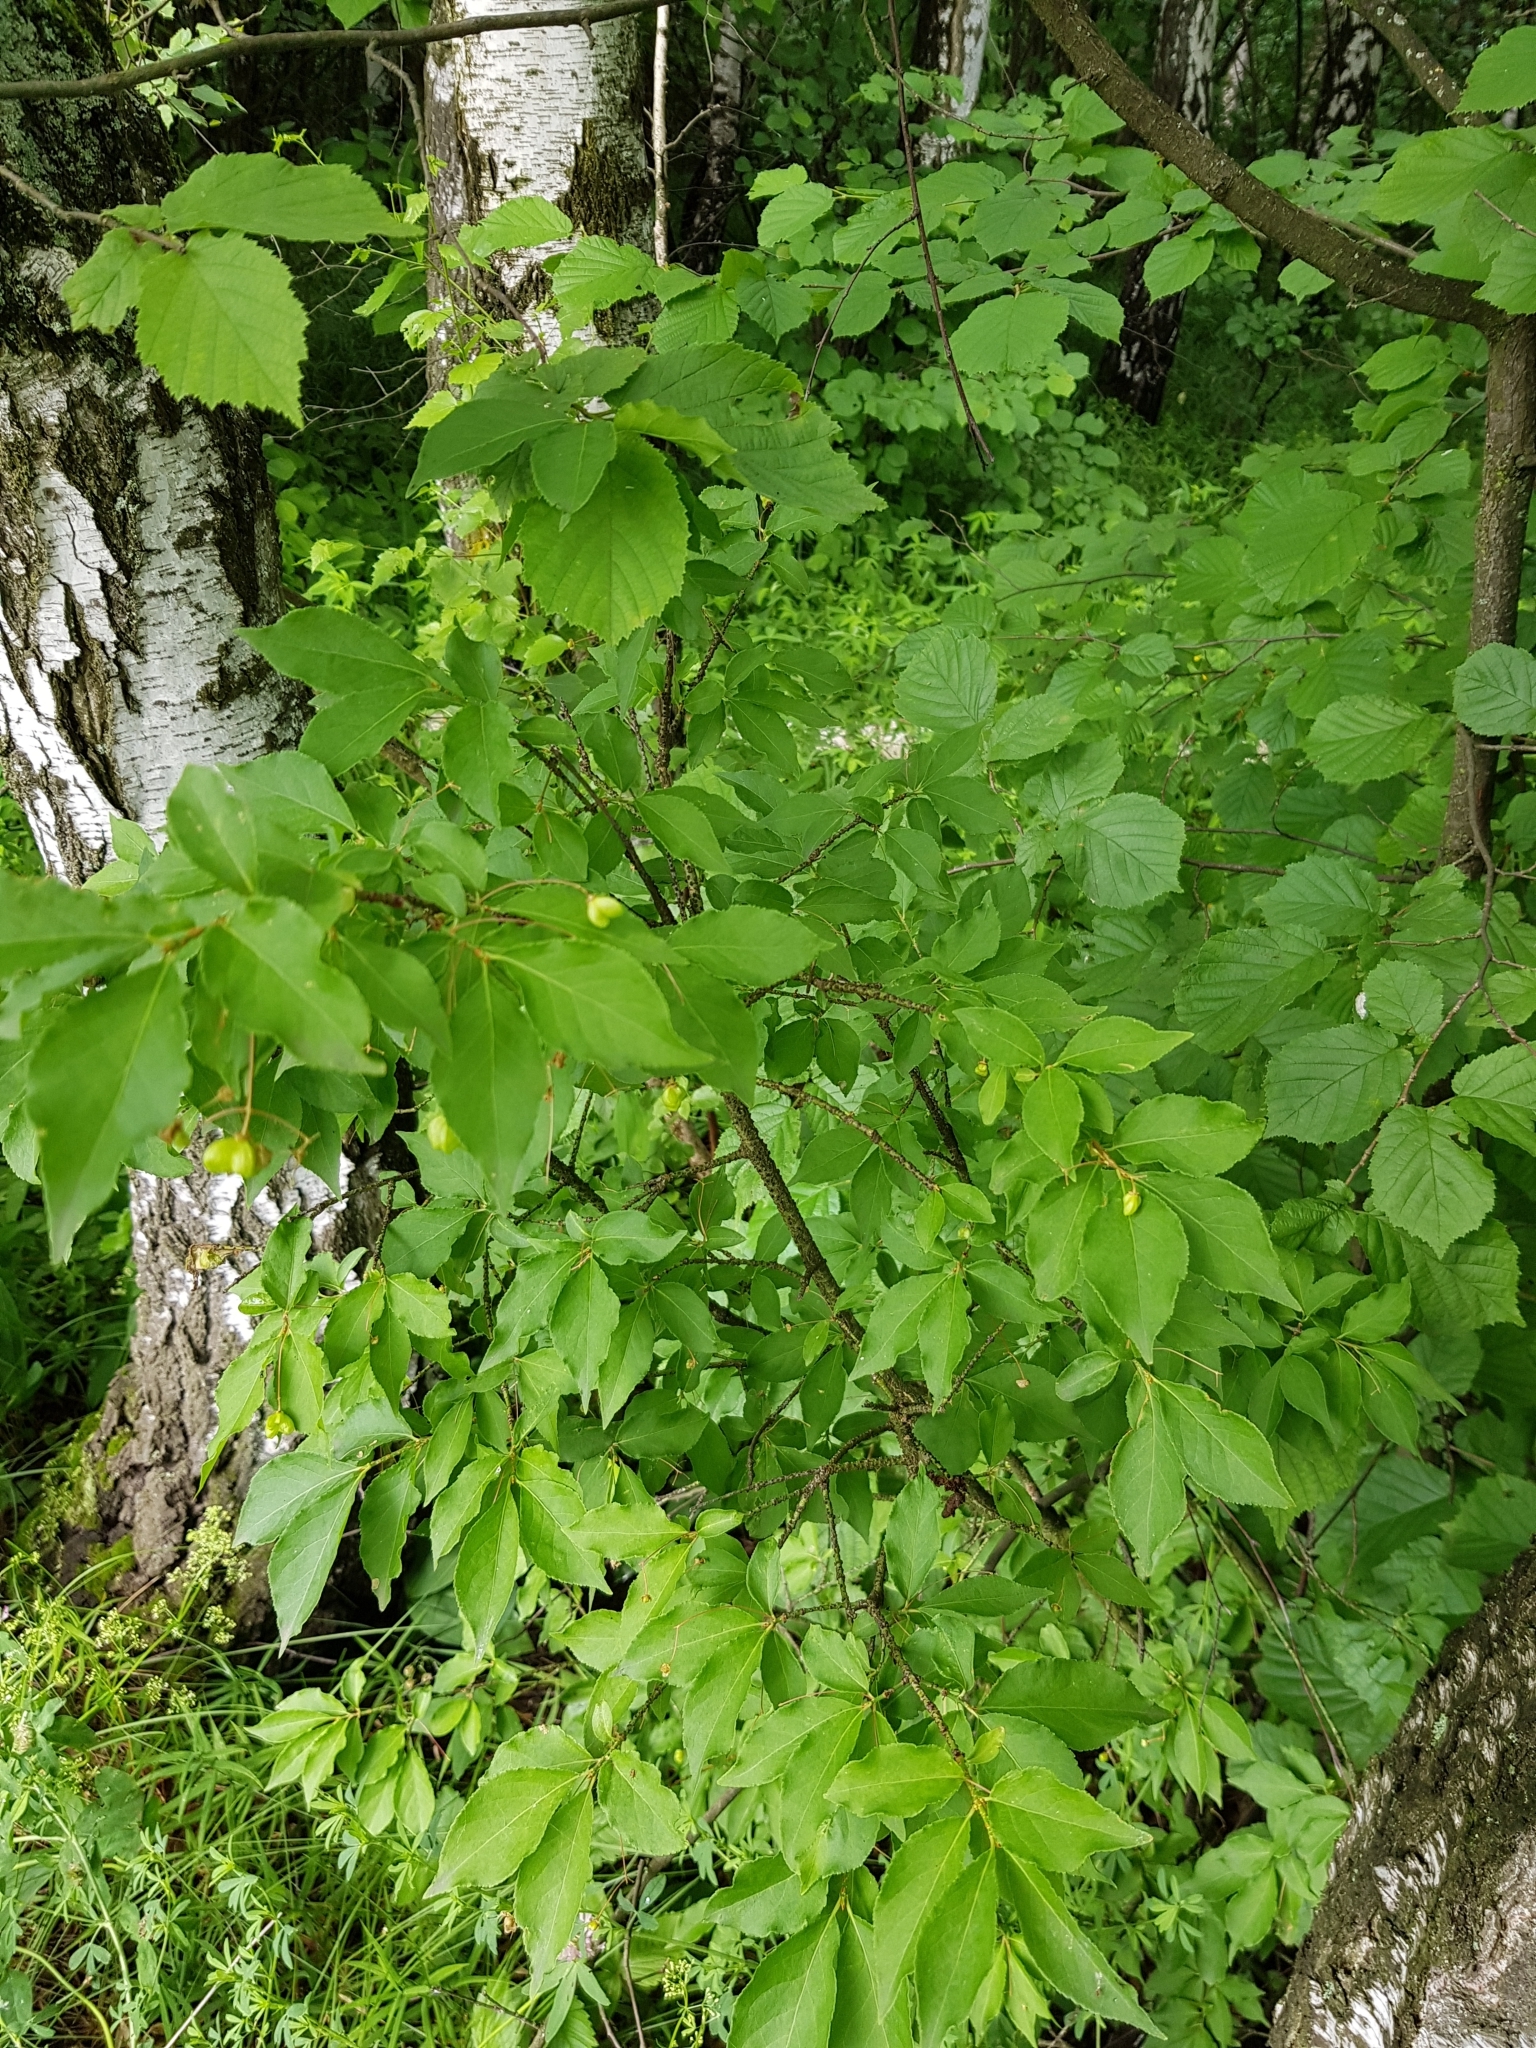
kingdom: Plantae
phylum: Tracheophyta
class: Magnoliopsida
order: Celastrales
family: Celastraceae
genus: Euonymus
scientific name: Euonymus verrucosus
